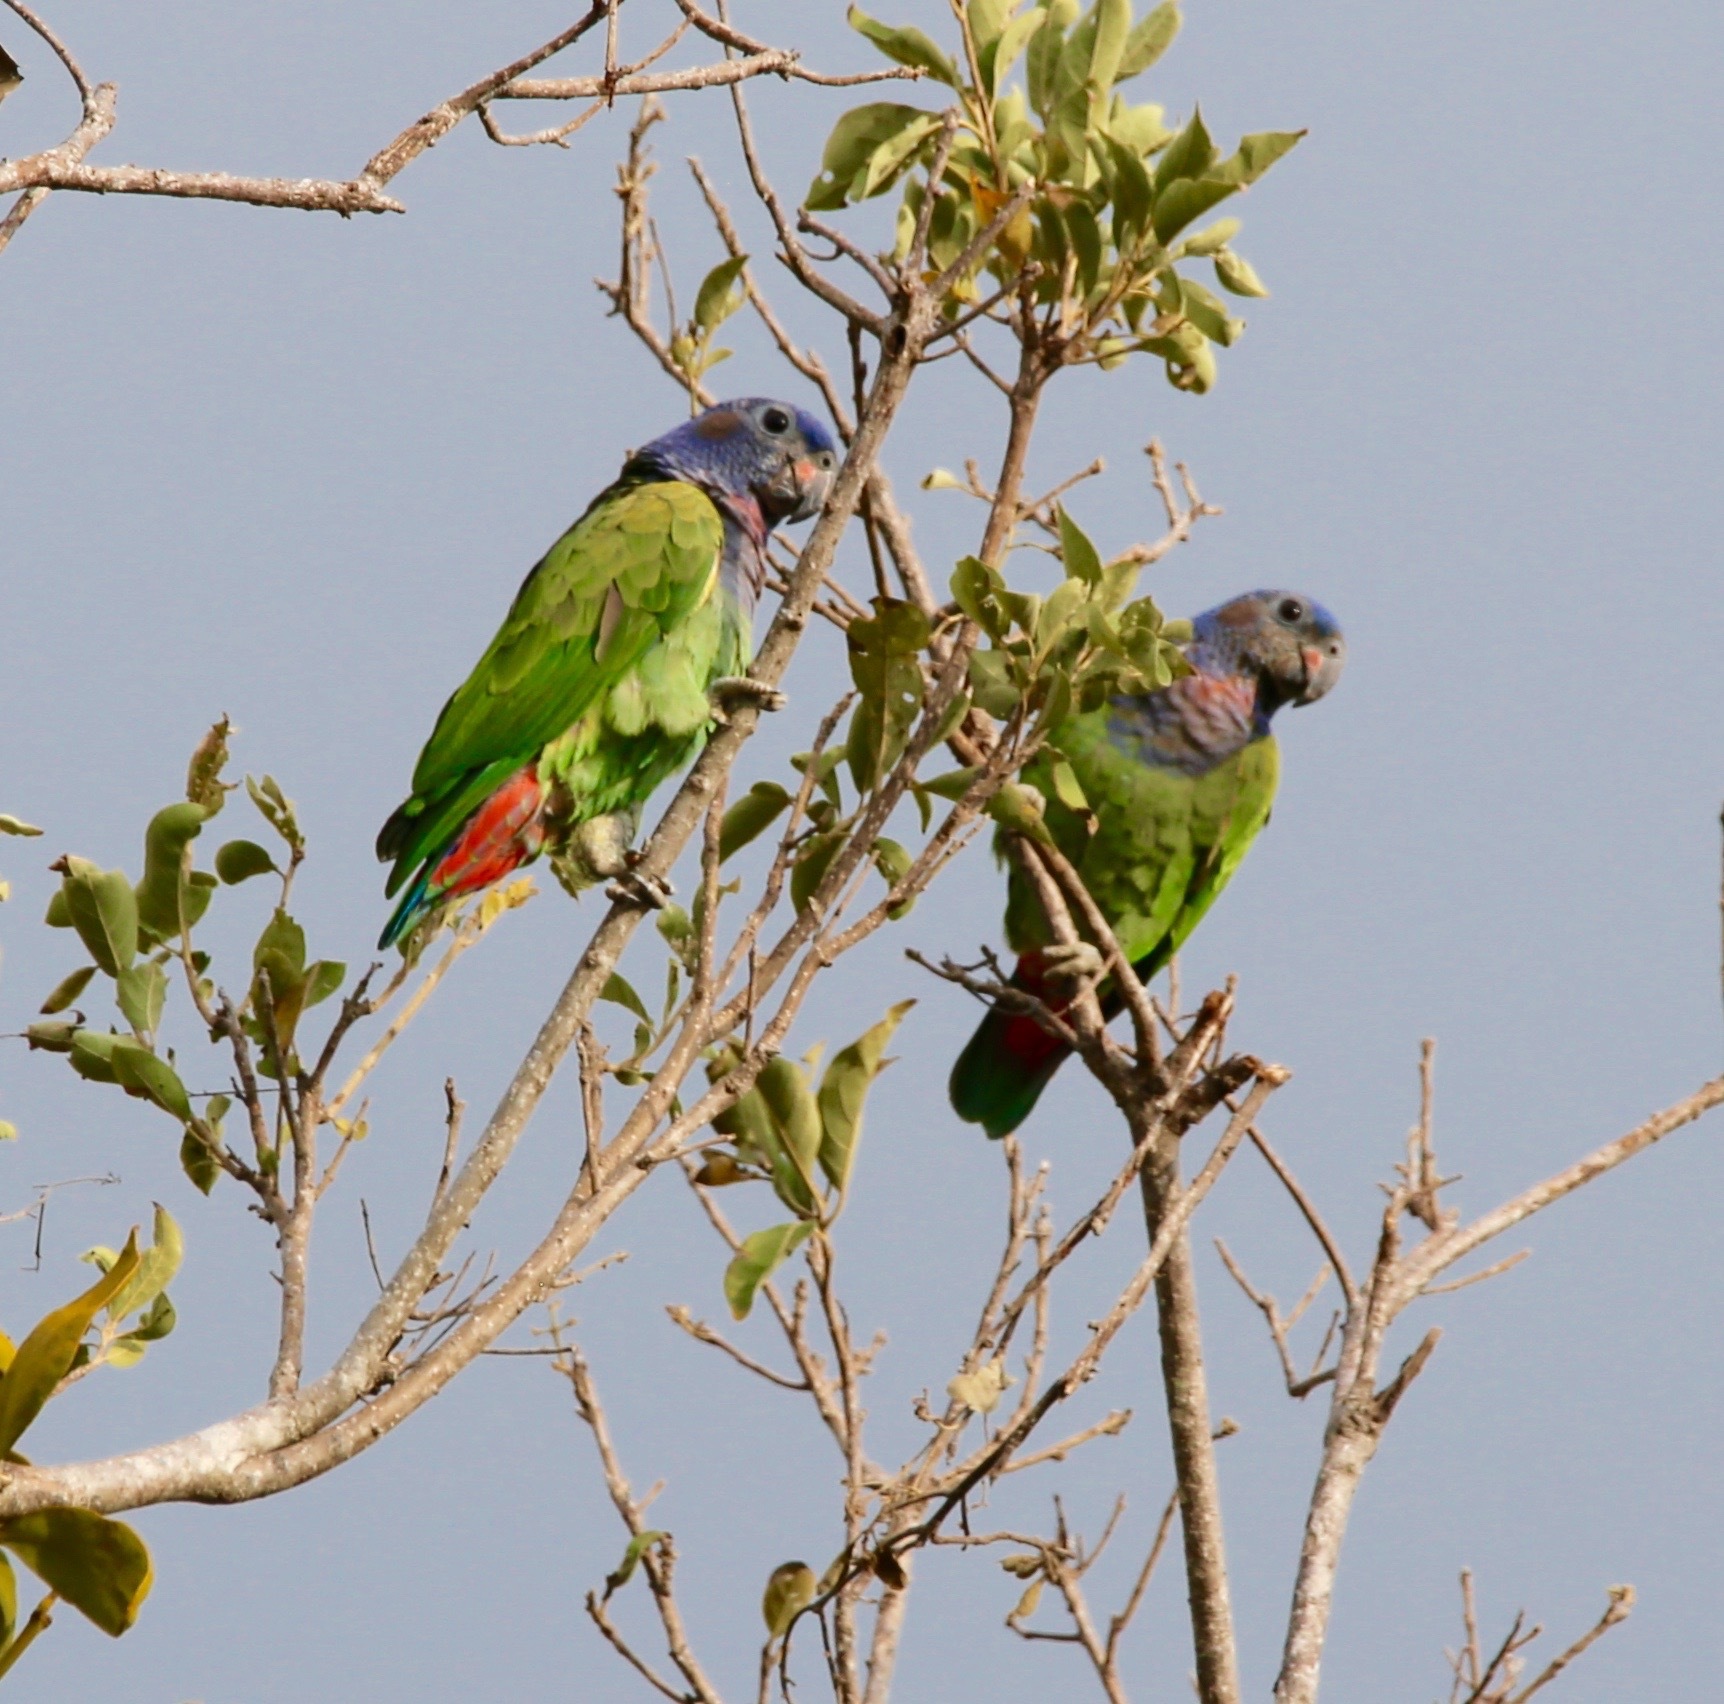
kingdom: Animalia
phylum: Chordata
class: Aves
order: Psittaciformes
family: Psittacidae
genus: Pionus
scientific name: Pionus menstruus
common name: Blue-headed parrot
